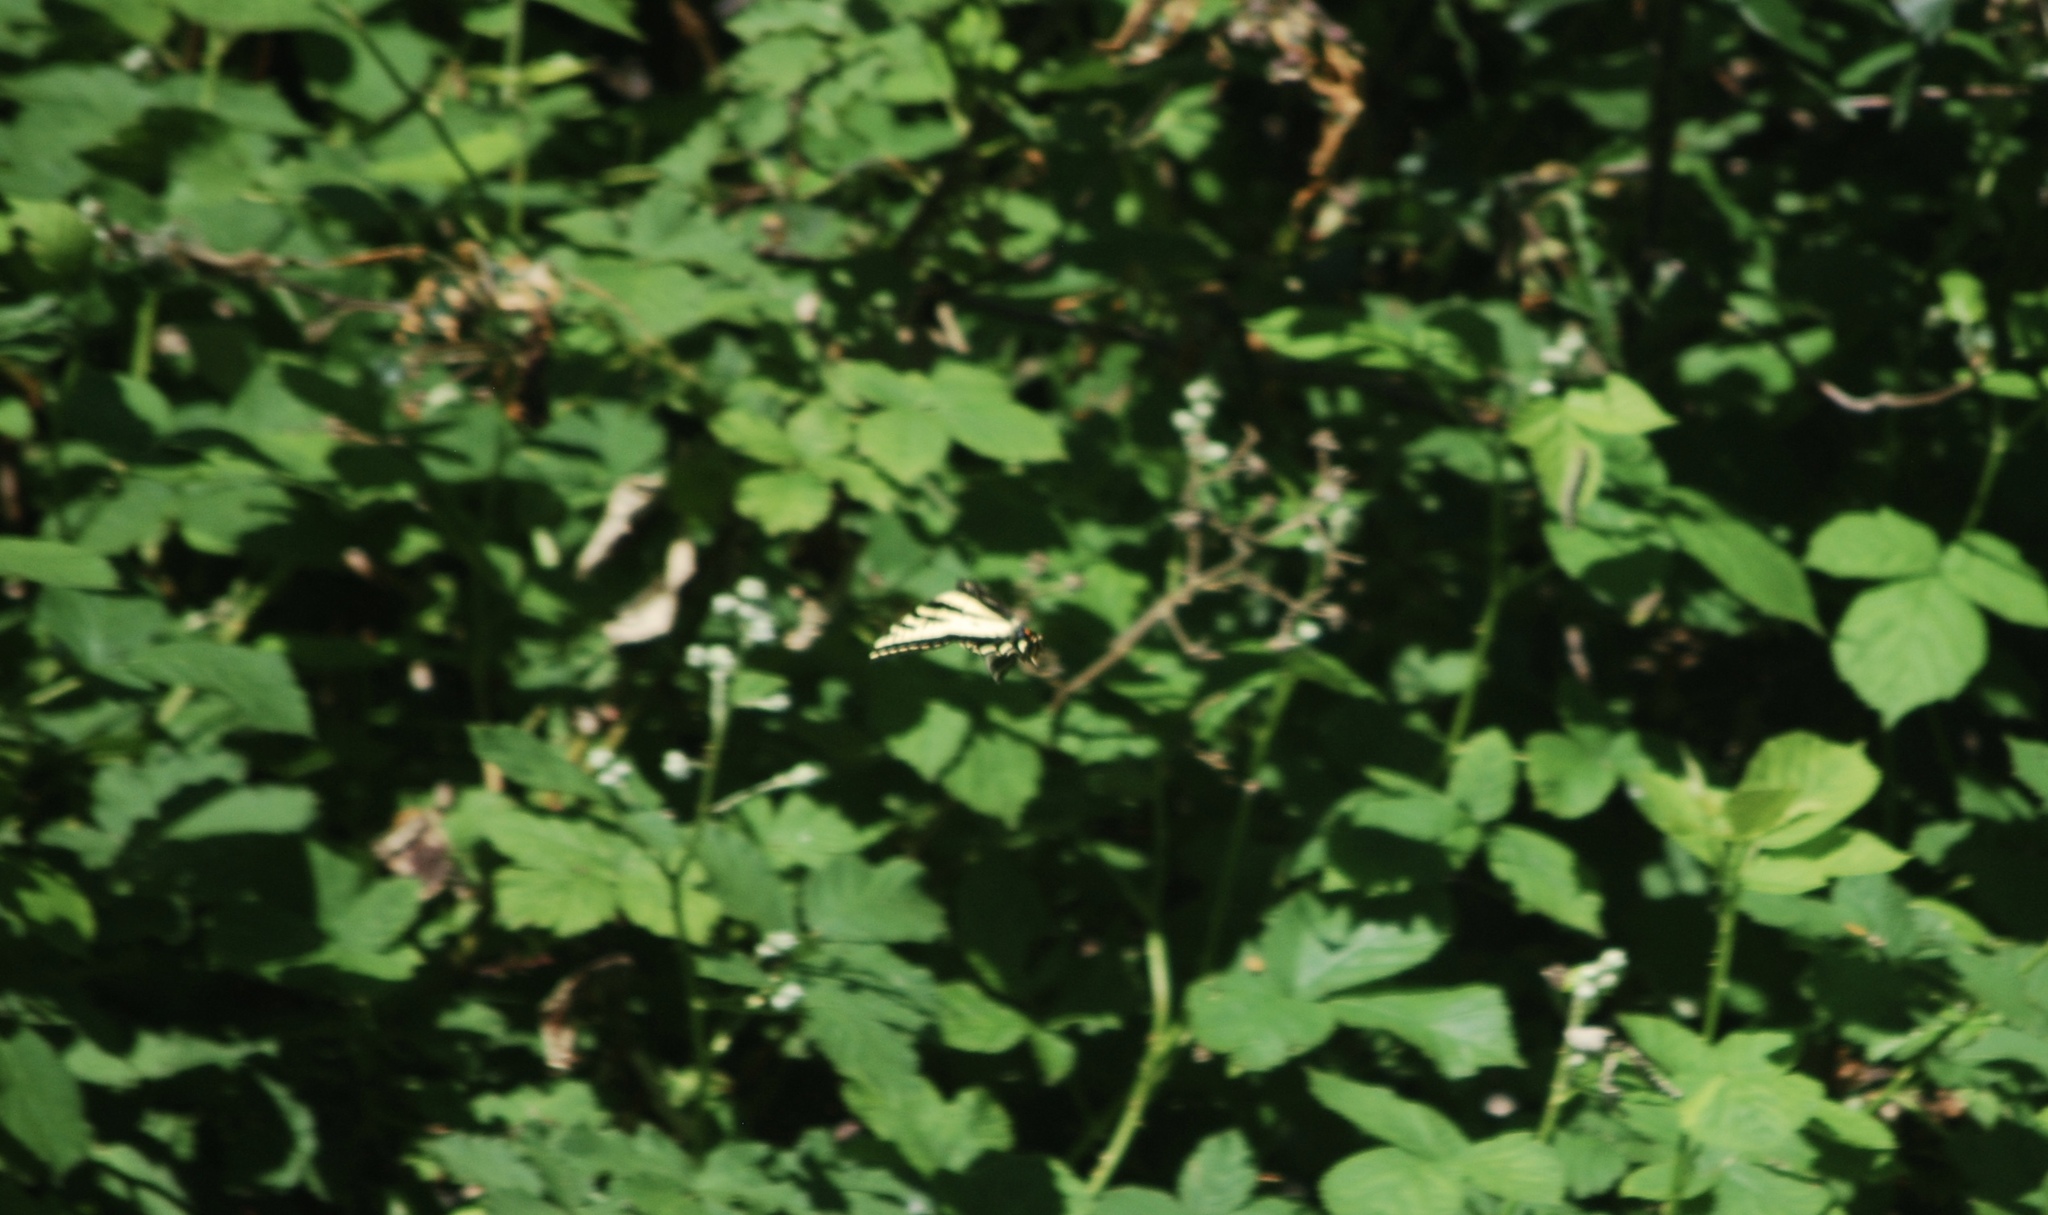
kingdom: Animalia
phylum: Arthropoda
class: Insecta
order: Lepidoptera
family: Papilionidae
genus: Papilio
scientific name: Papilio rutulus
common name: Western tiger swallowtail
